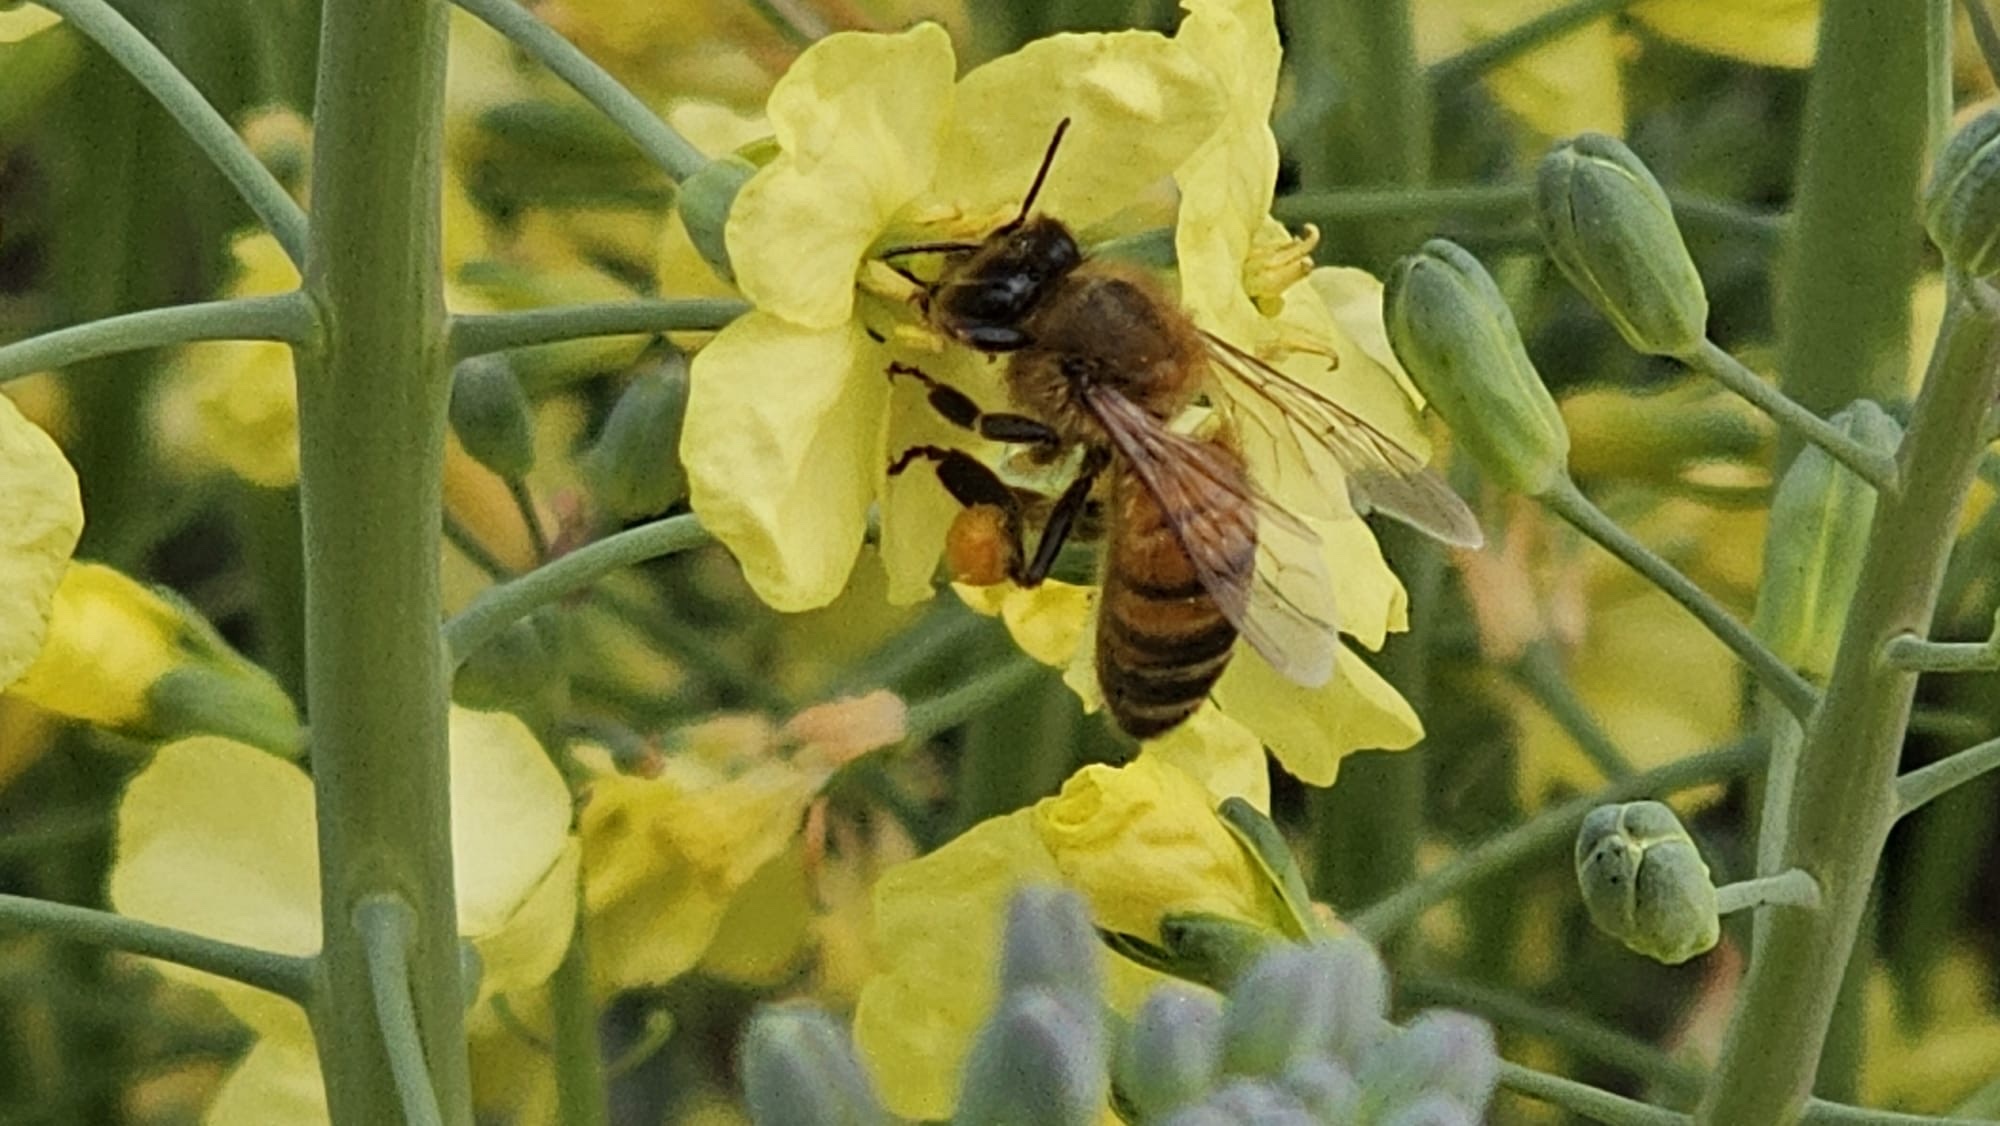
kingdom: Animalia
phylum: Arthropoda
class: Insecta
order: Hymenoptera
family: Apidae
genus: Apis
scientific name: Apis mellifera
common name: Honey bee
